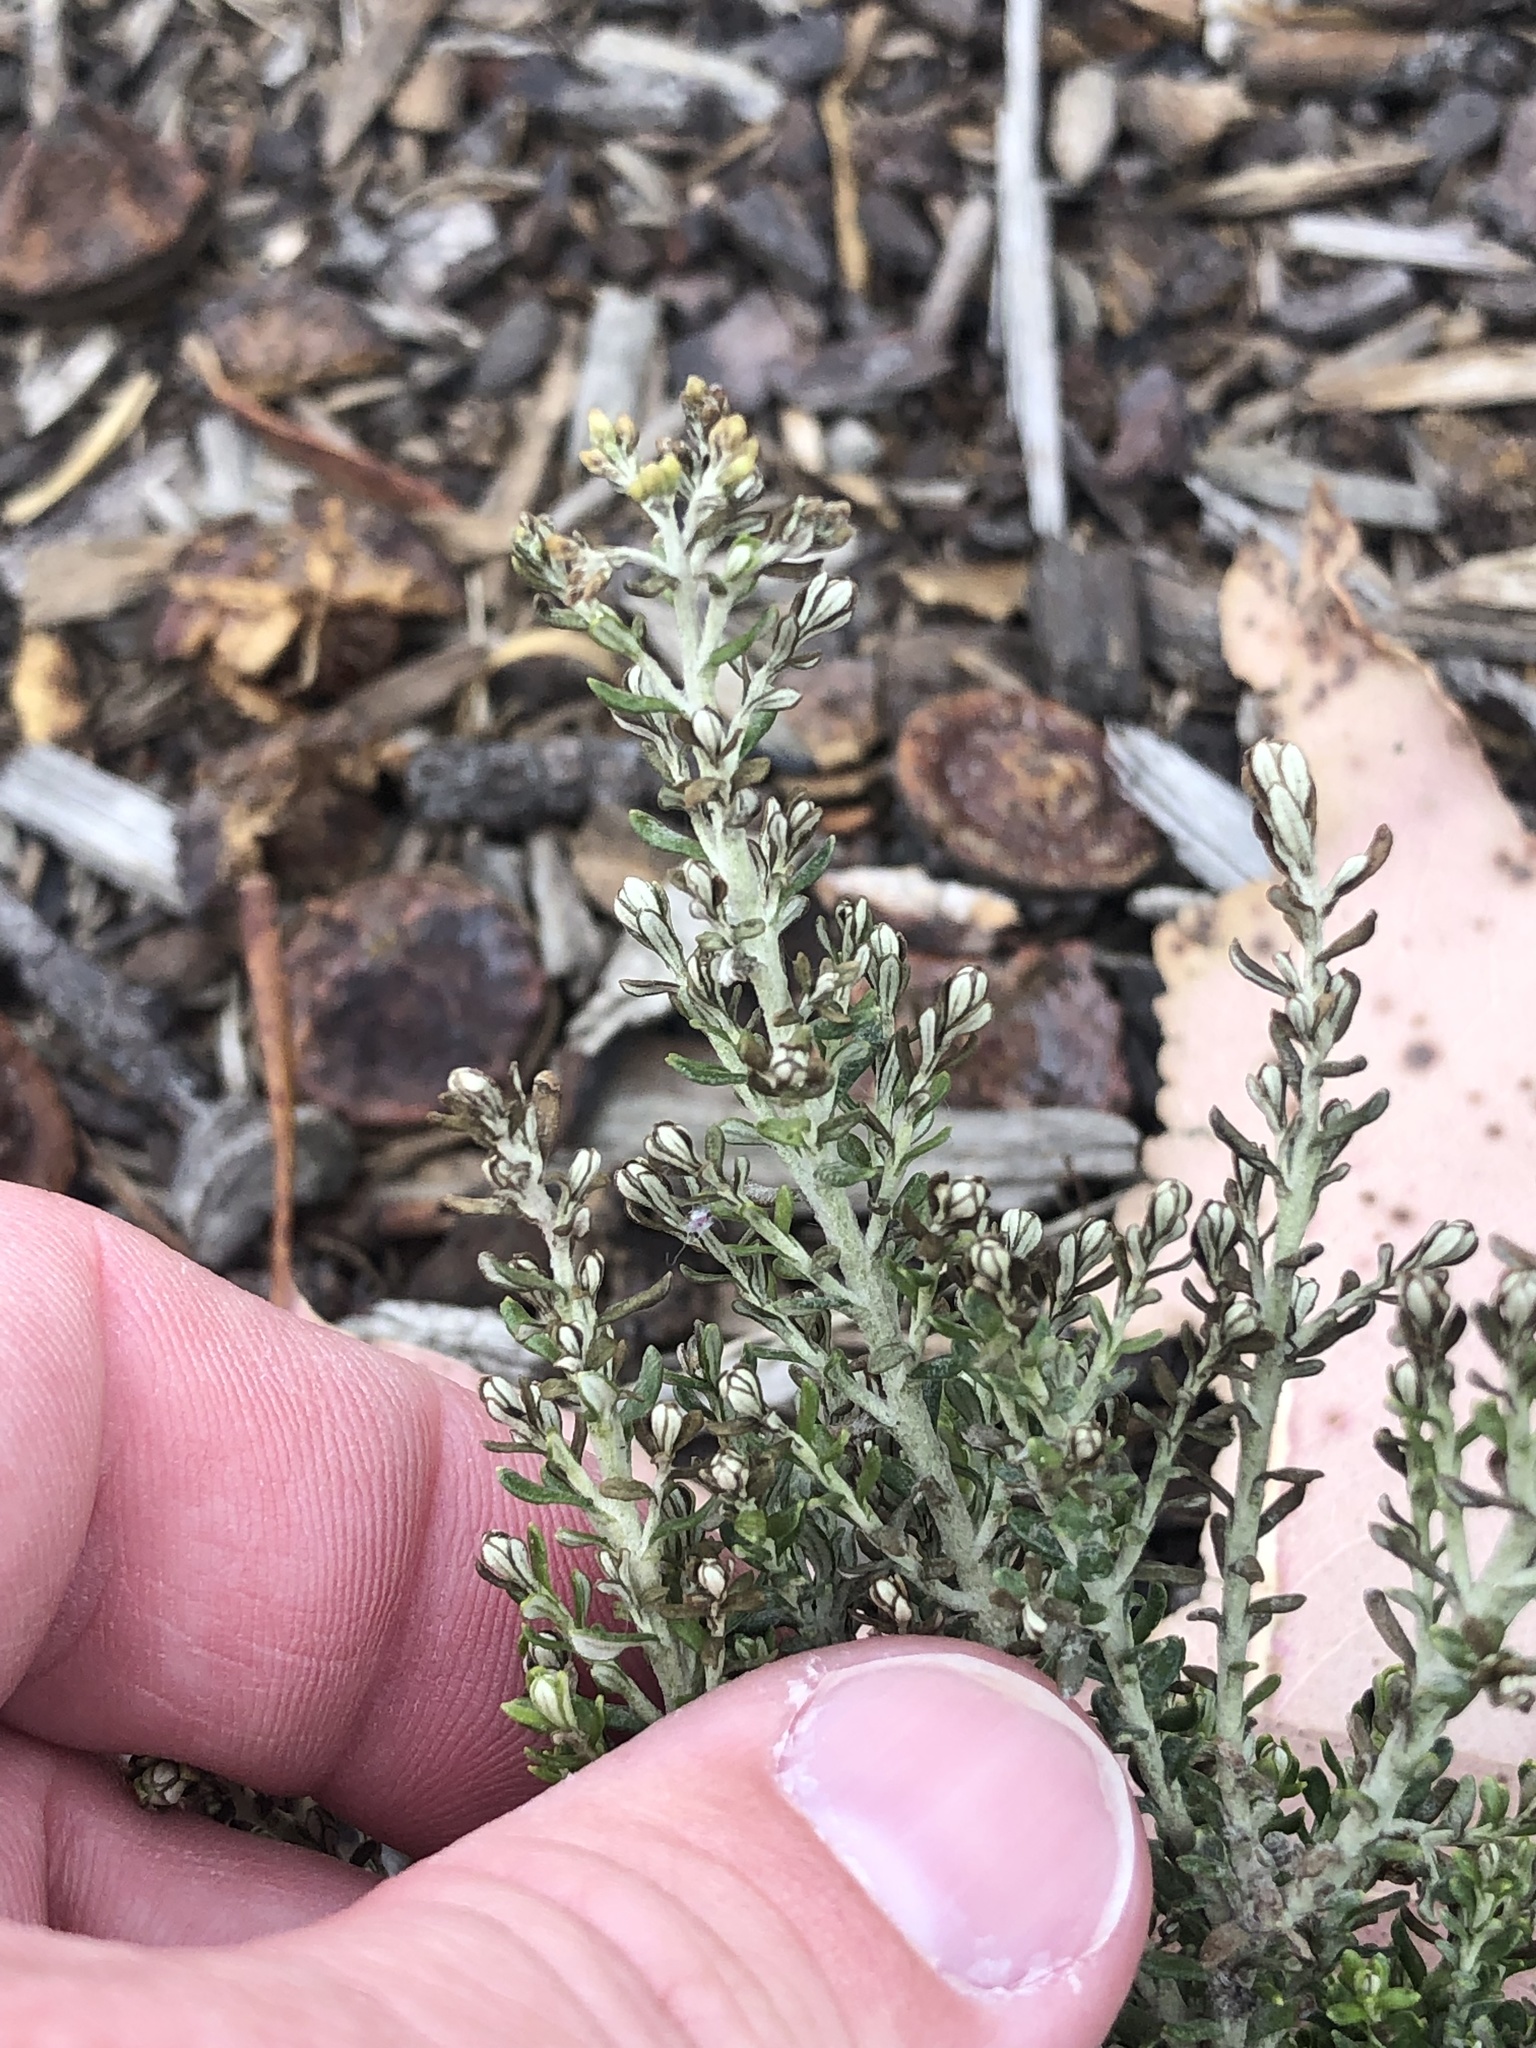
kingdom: Plantae
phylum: Tracheophyta
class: Magnoliopsida
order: Asterales
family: Asteraceae
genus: Ozothamnus
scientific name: Ozothamnus leptophyllus
